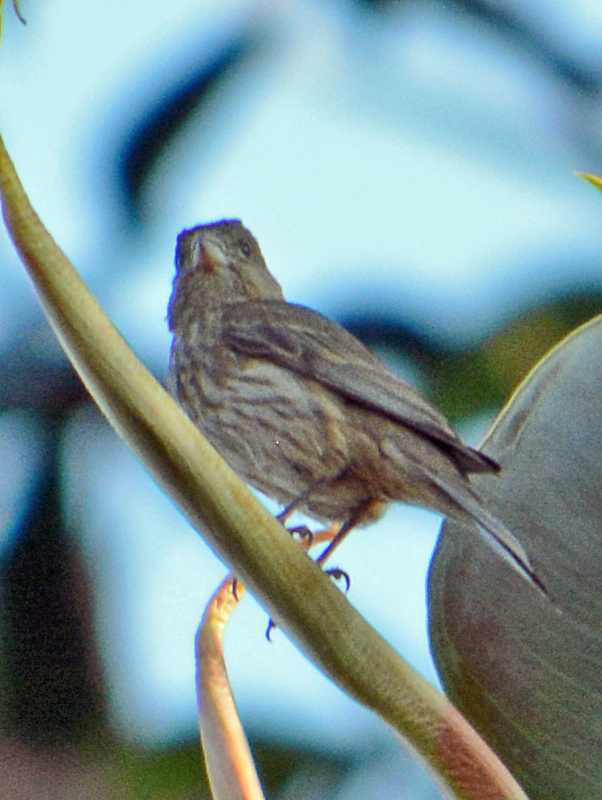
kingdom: Animalia
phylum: Chordata
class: Aves
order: Passeriformes
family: Fringillidae
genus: Haemorhous
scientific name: Haemorhous mexicanus
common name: House finch
